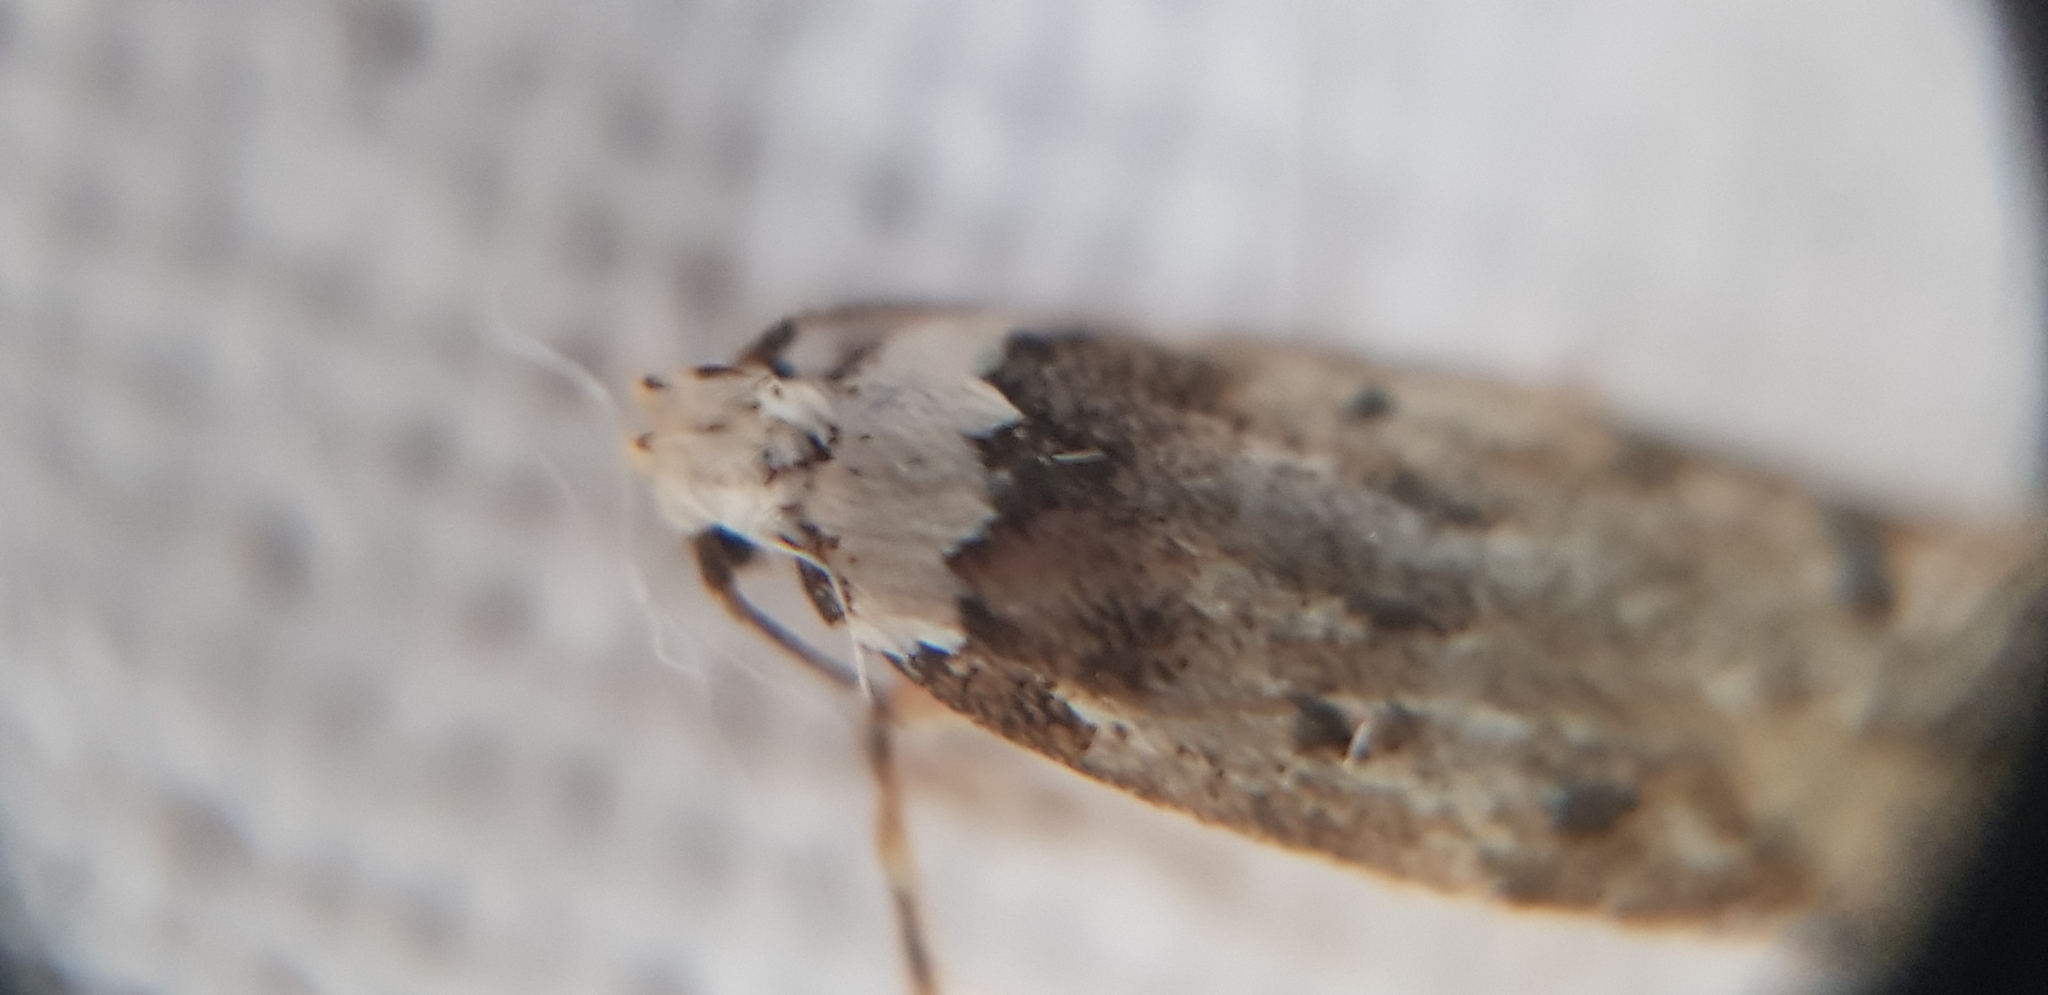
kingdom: Animalia
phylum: Arthropoda
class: Insecta
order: Lepidoptera
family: Oecophoridae
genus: Endrosis
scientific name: Endrosis sarcitrella
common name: White-shouldered house moth
